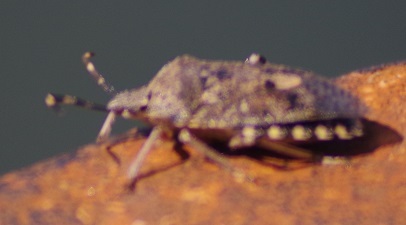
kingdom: Animalia
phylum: Arthropoda
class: Insecta
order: Hemiptera
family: Pentatomidae
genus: Rhaphigaster
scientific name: Rhaphigaster nebulosa
